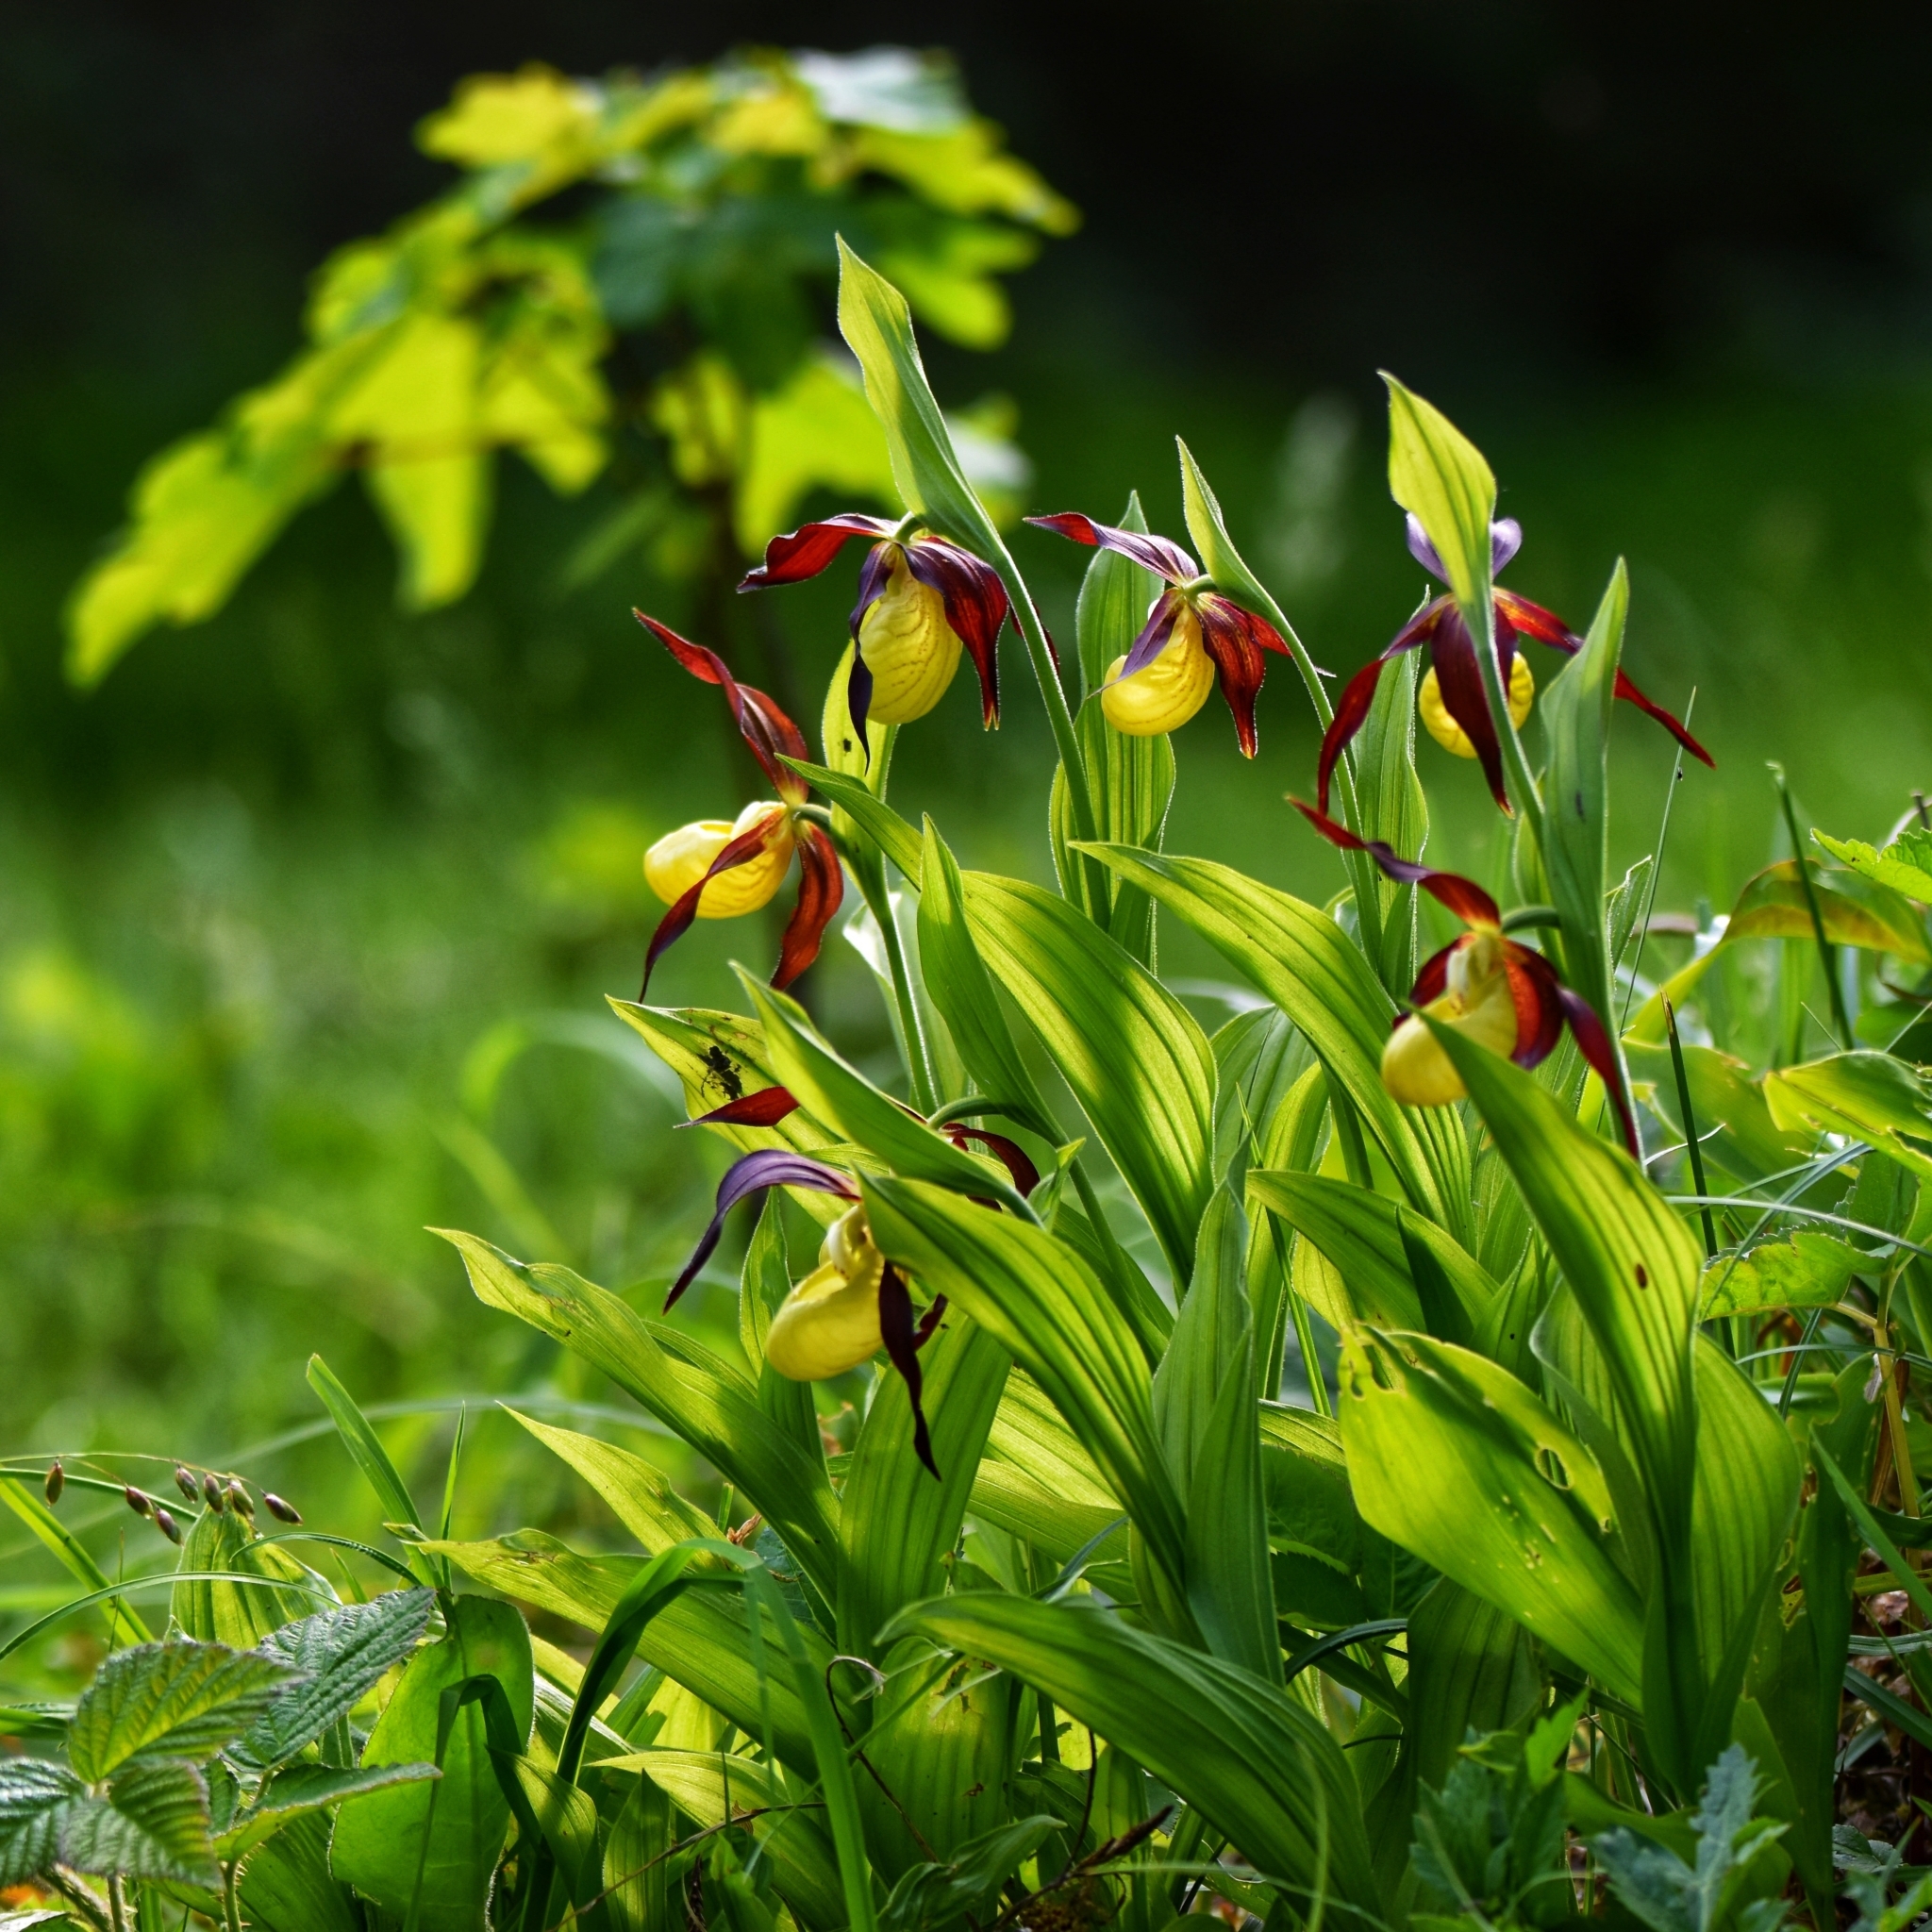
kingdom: Plantae
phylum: Tracheophyta
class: Liliopsida
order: Asparagales
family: Orchidaceae
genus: Cypripedium
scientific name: Cypripedium calceolus
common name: Lady's-slipper
